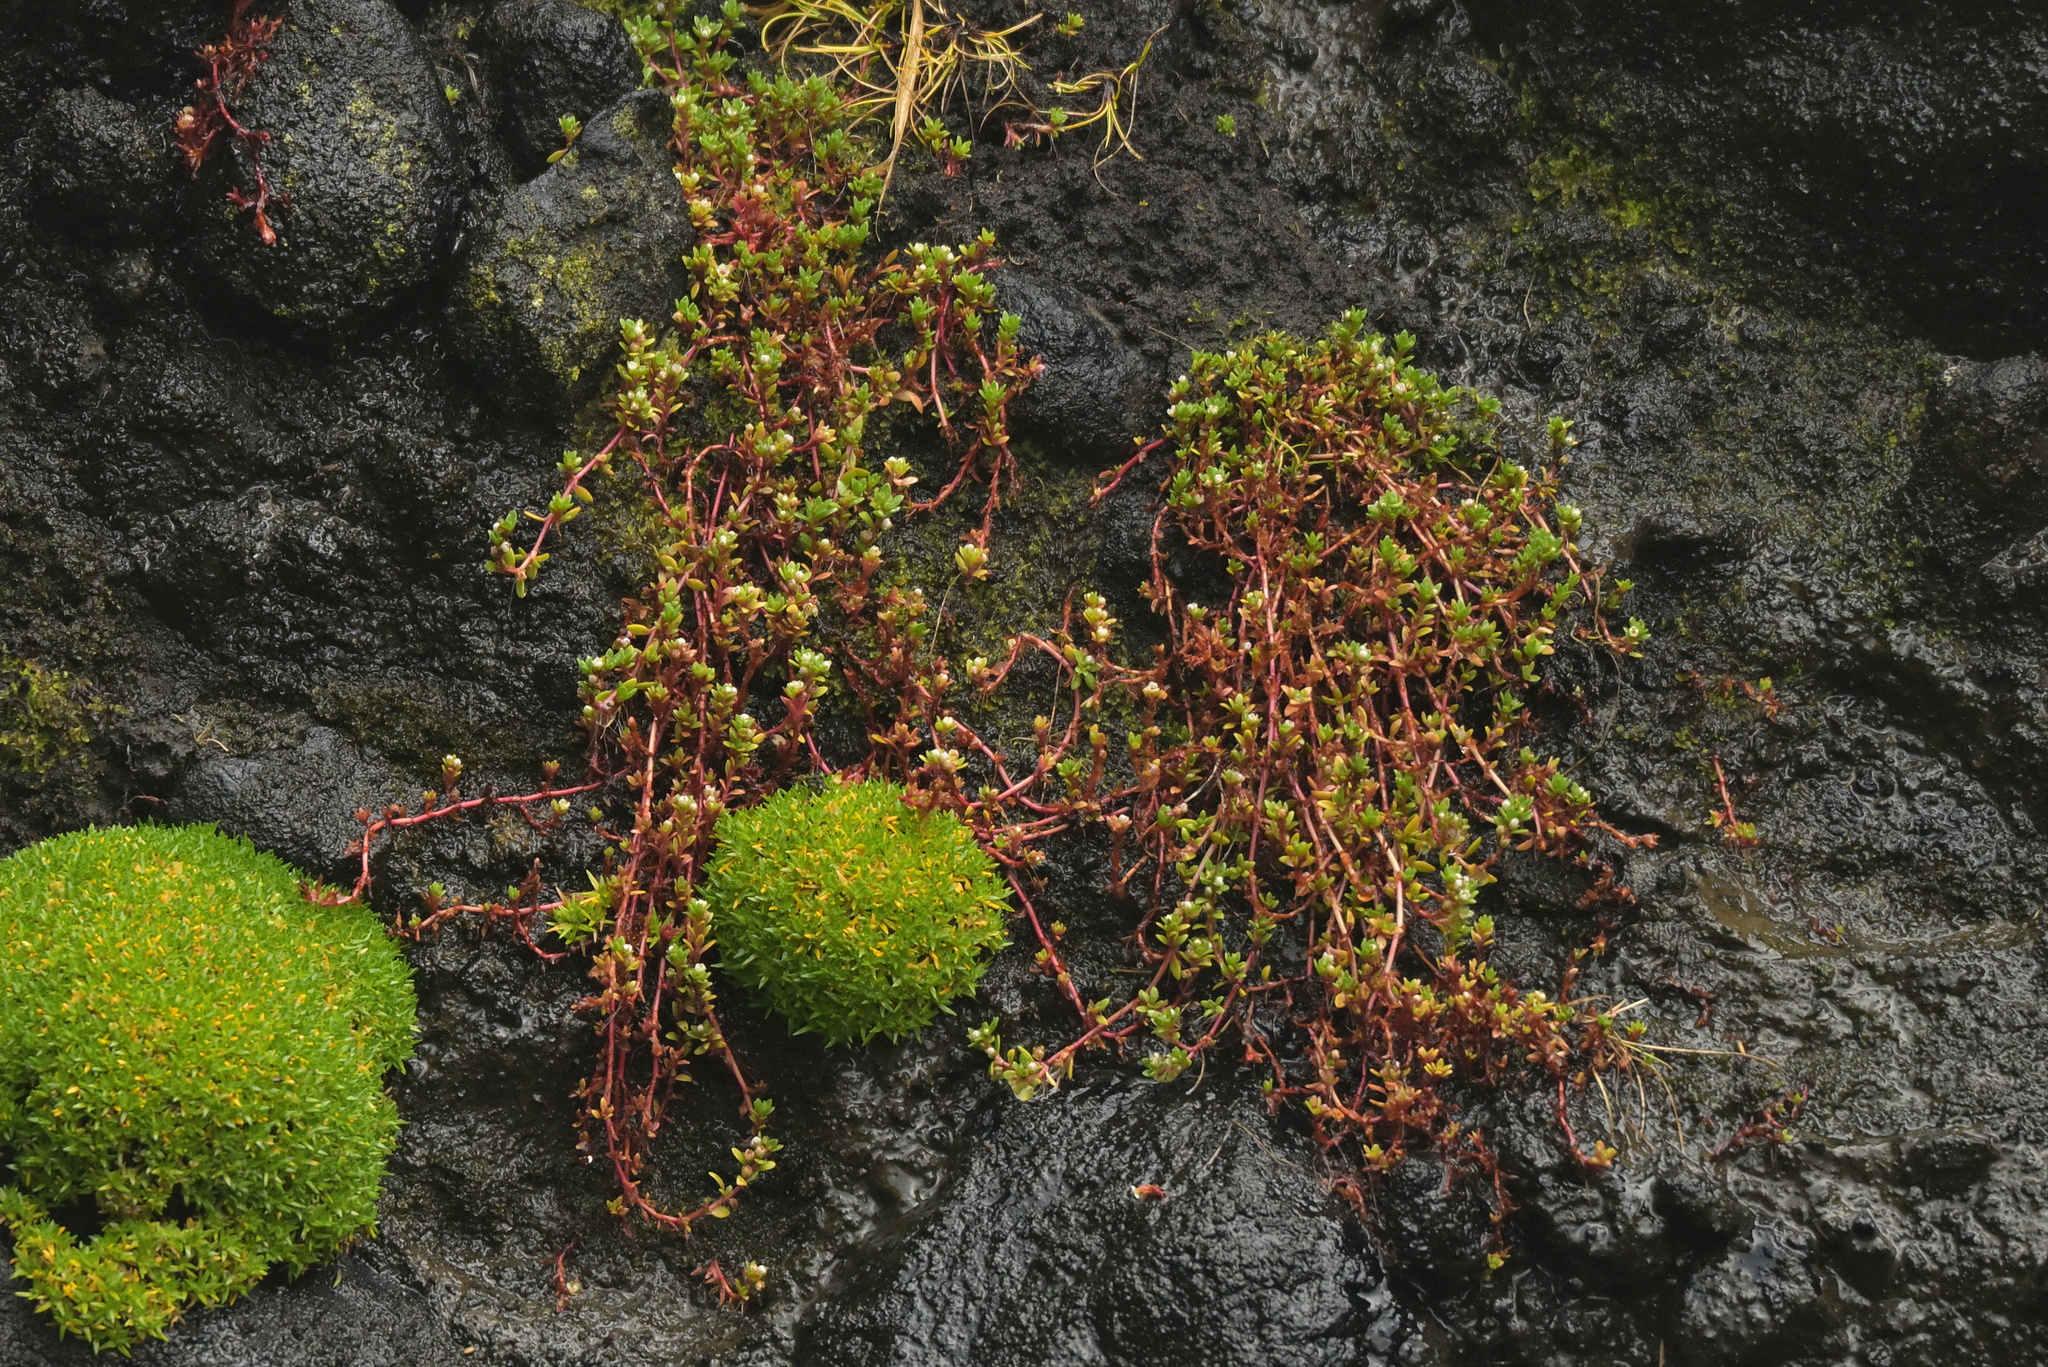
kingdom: Plantae
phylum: Tracheophyta
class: Magnoliopsida
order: Saxifragales
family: Crassulaceae
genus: Crassula
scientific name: Crassula moschata
